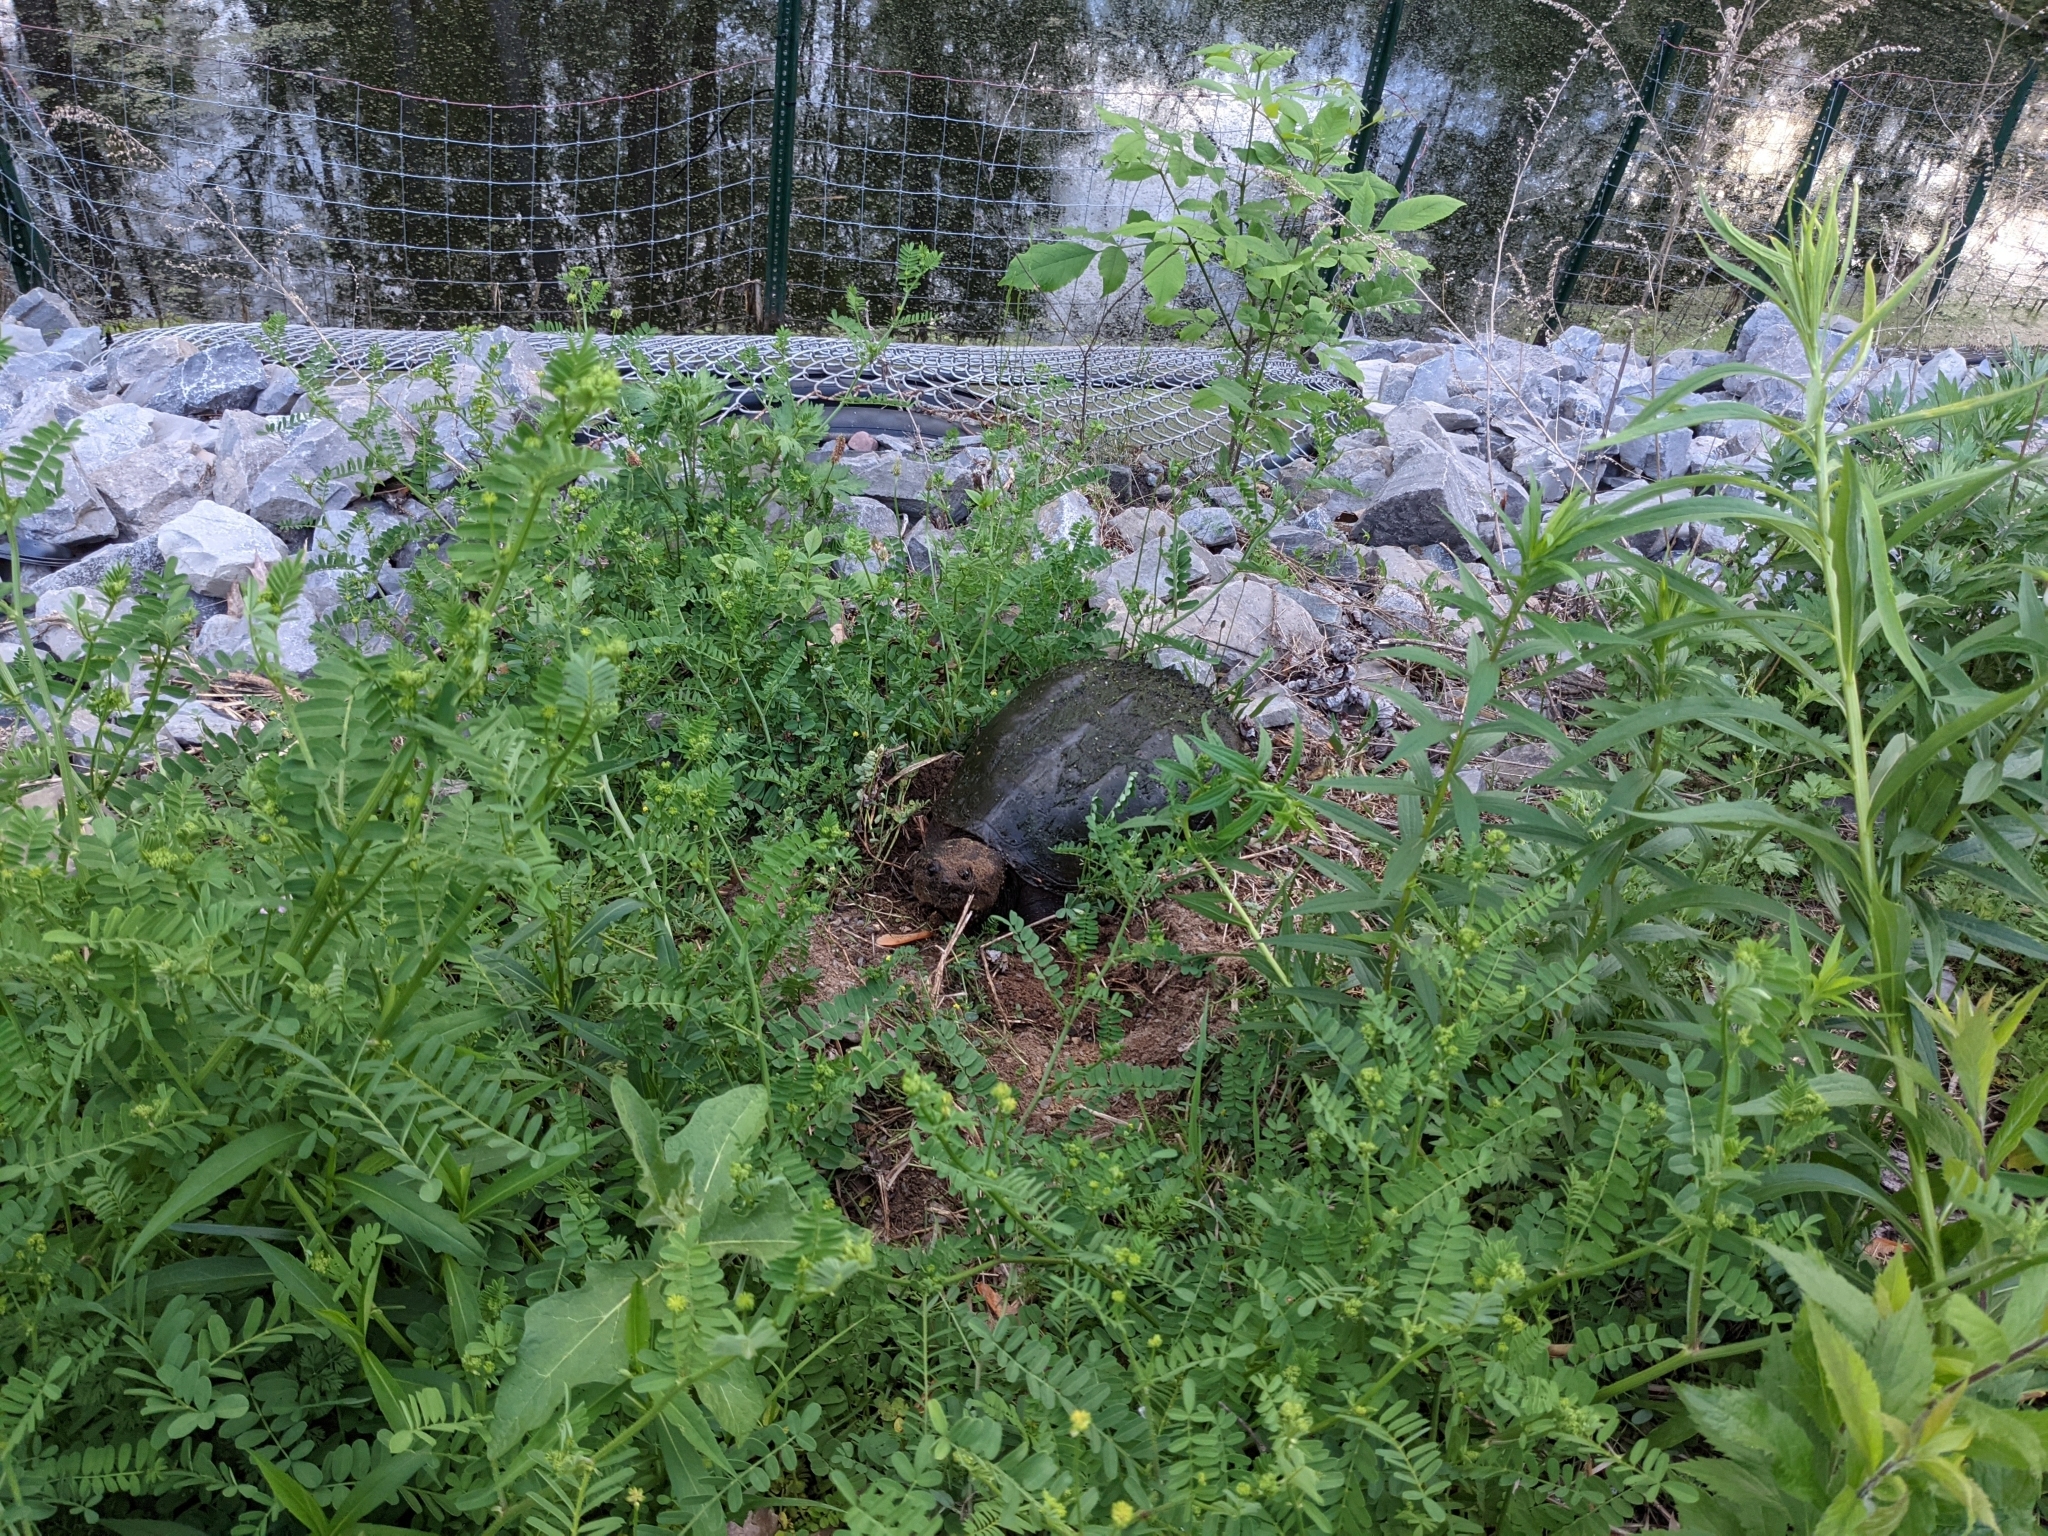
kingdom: Animalia
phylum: Chordata
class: Testudines
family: Chelydridae
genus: Chelydra
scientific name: Chelydra serpentina
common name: Common snapping turtle
